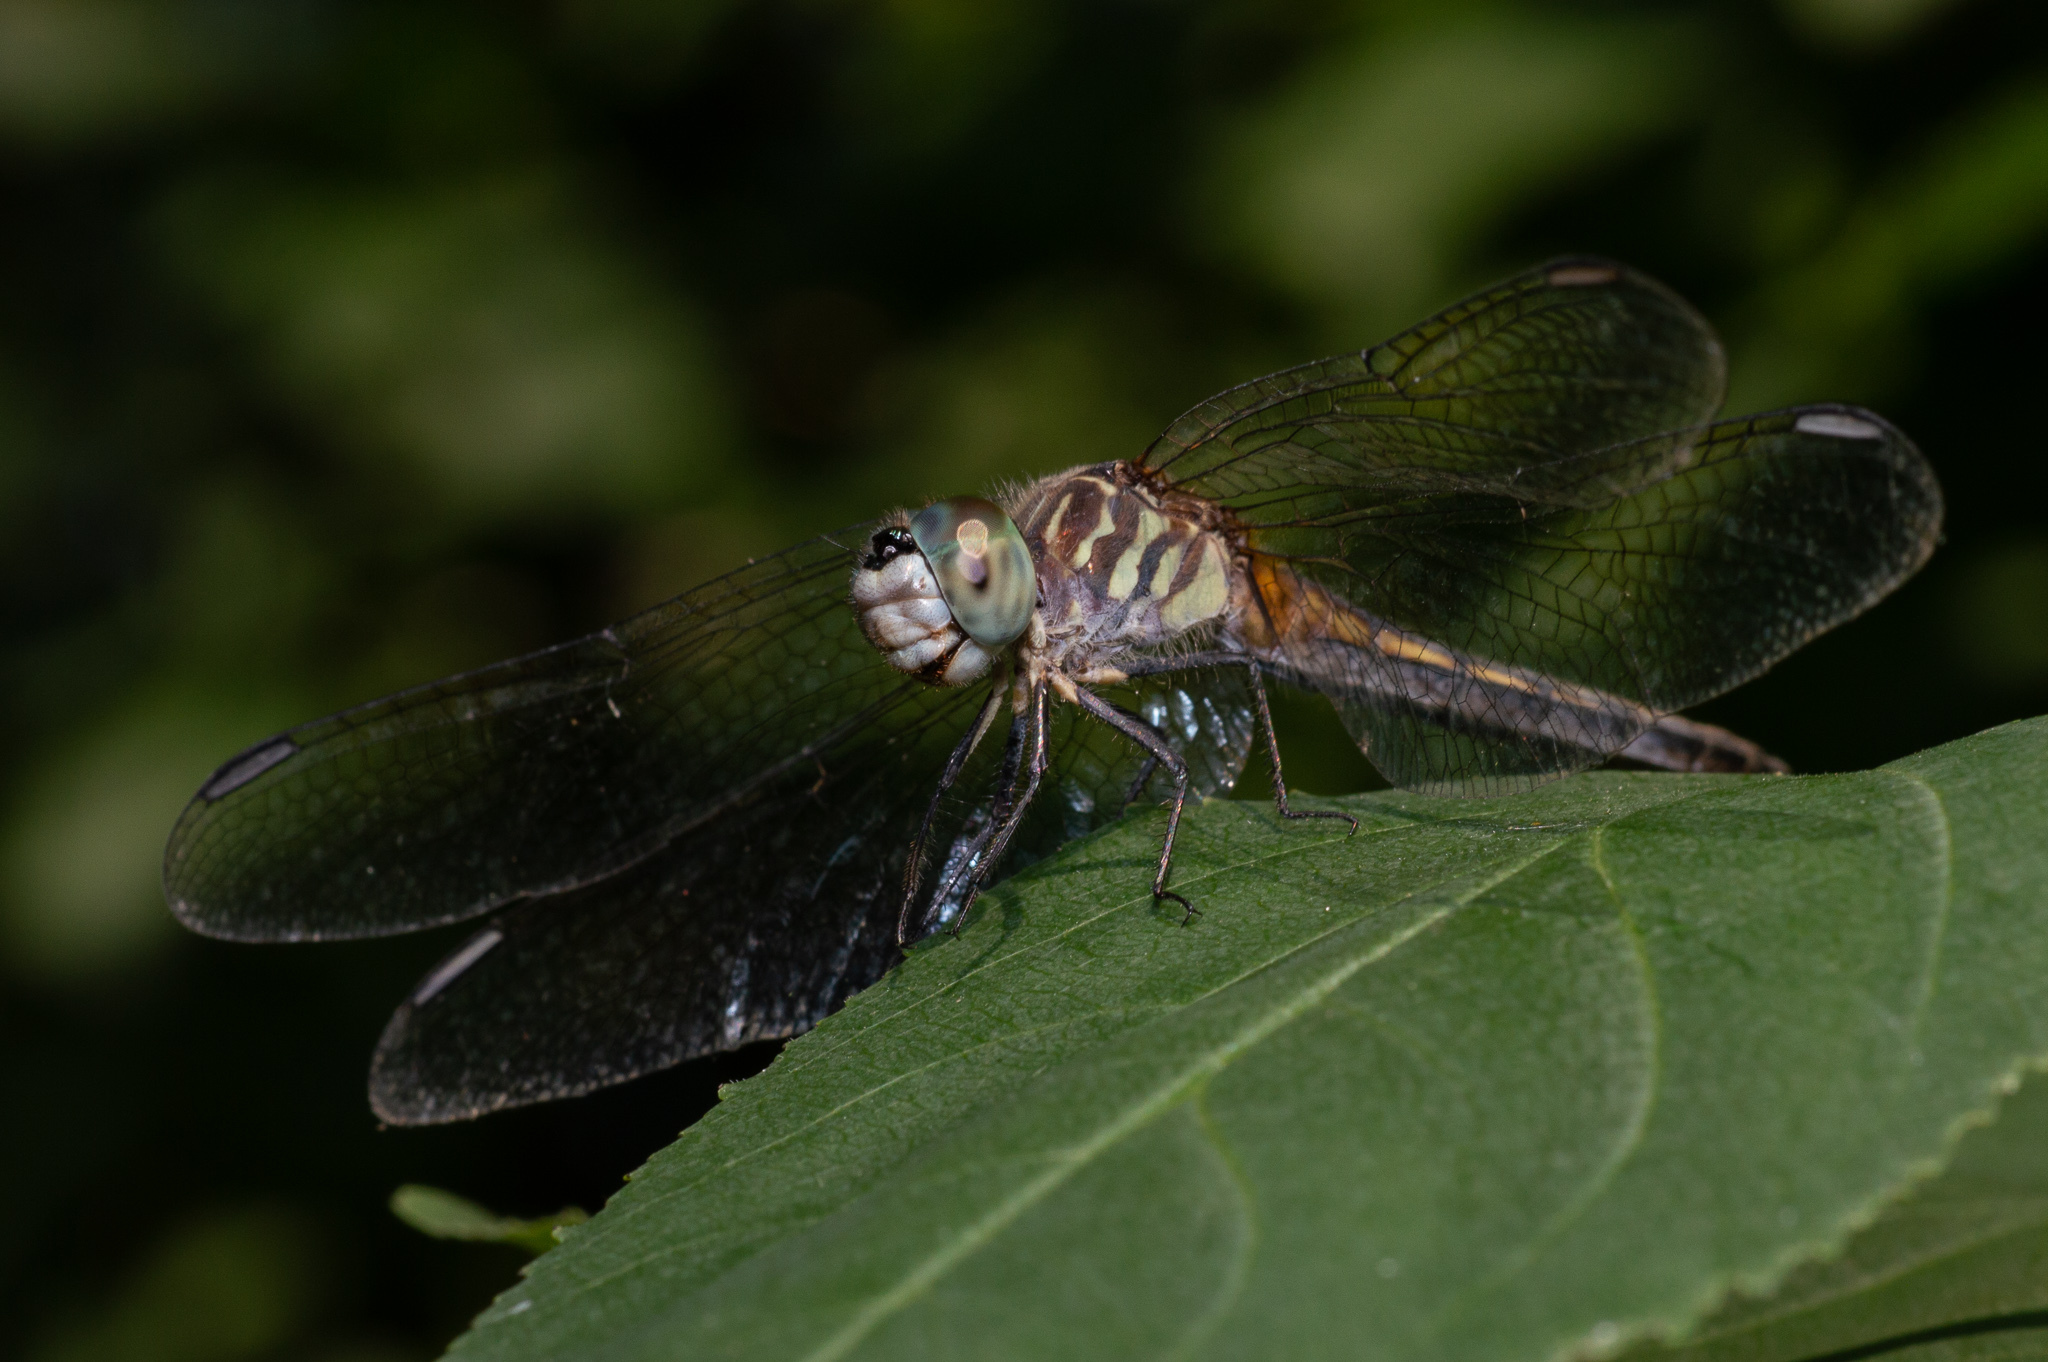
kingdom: Animalia
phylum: Arthropoda
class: Insecta
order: Odonata
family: Libellulidae
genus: Pachydiplax
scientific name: Pachydiplax longipennis
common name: Blue dasher
